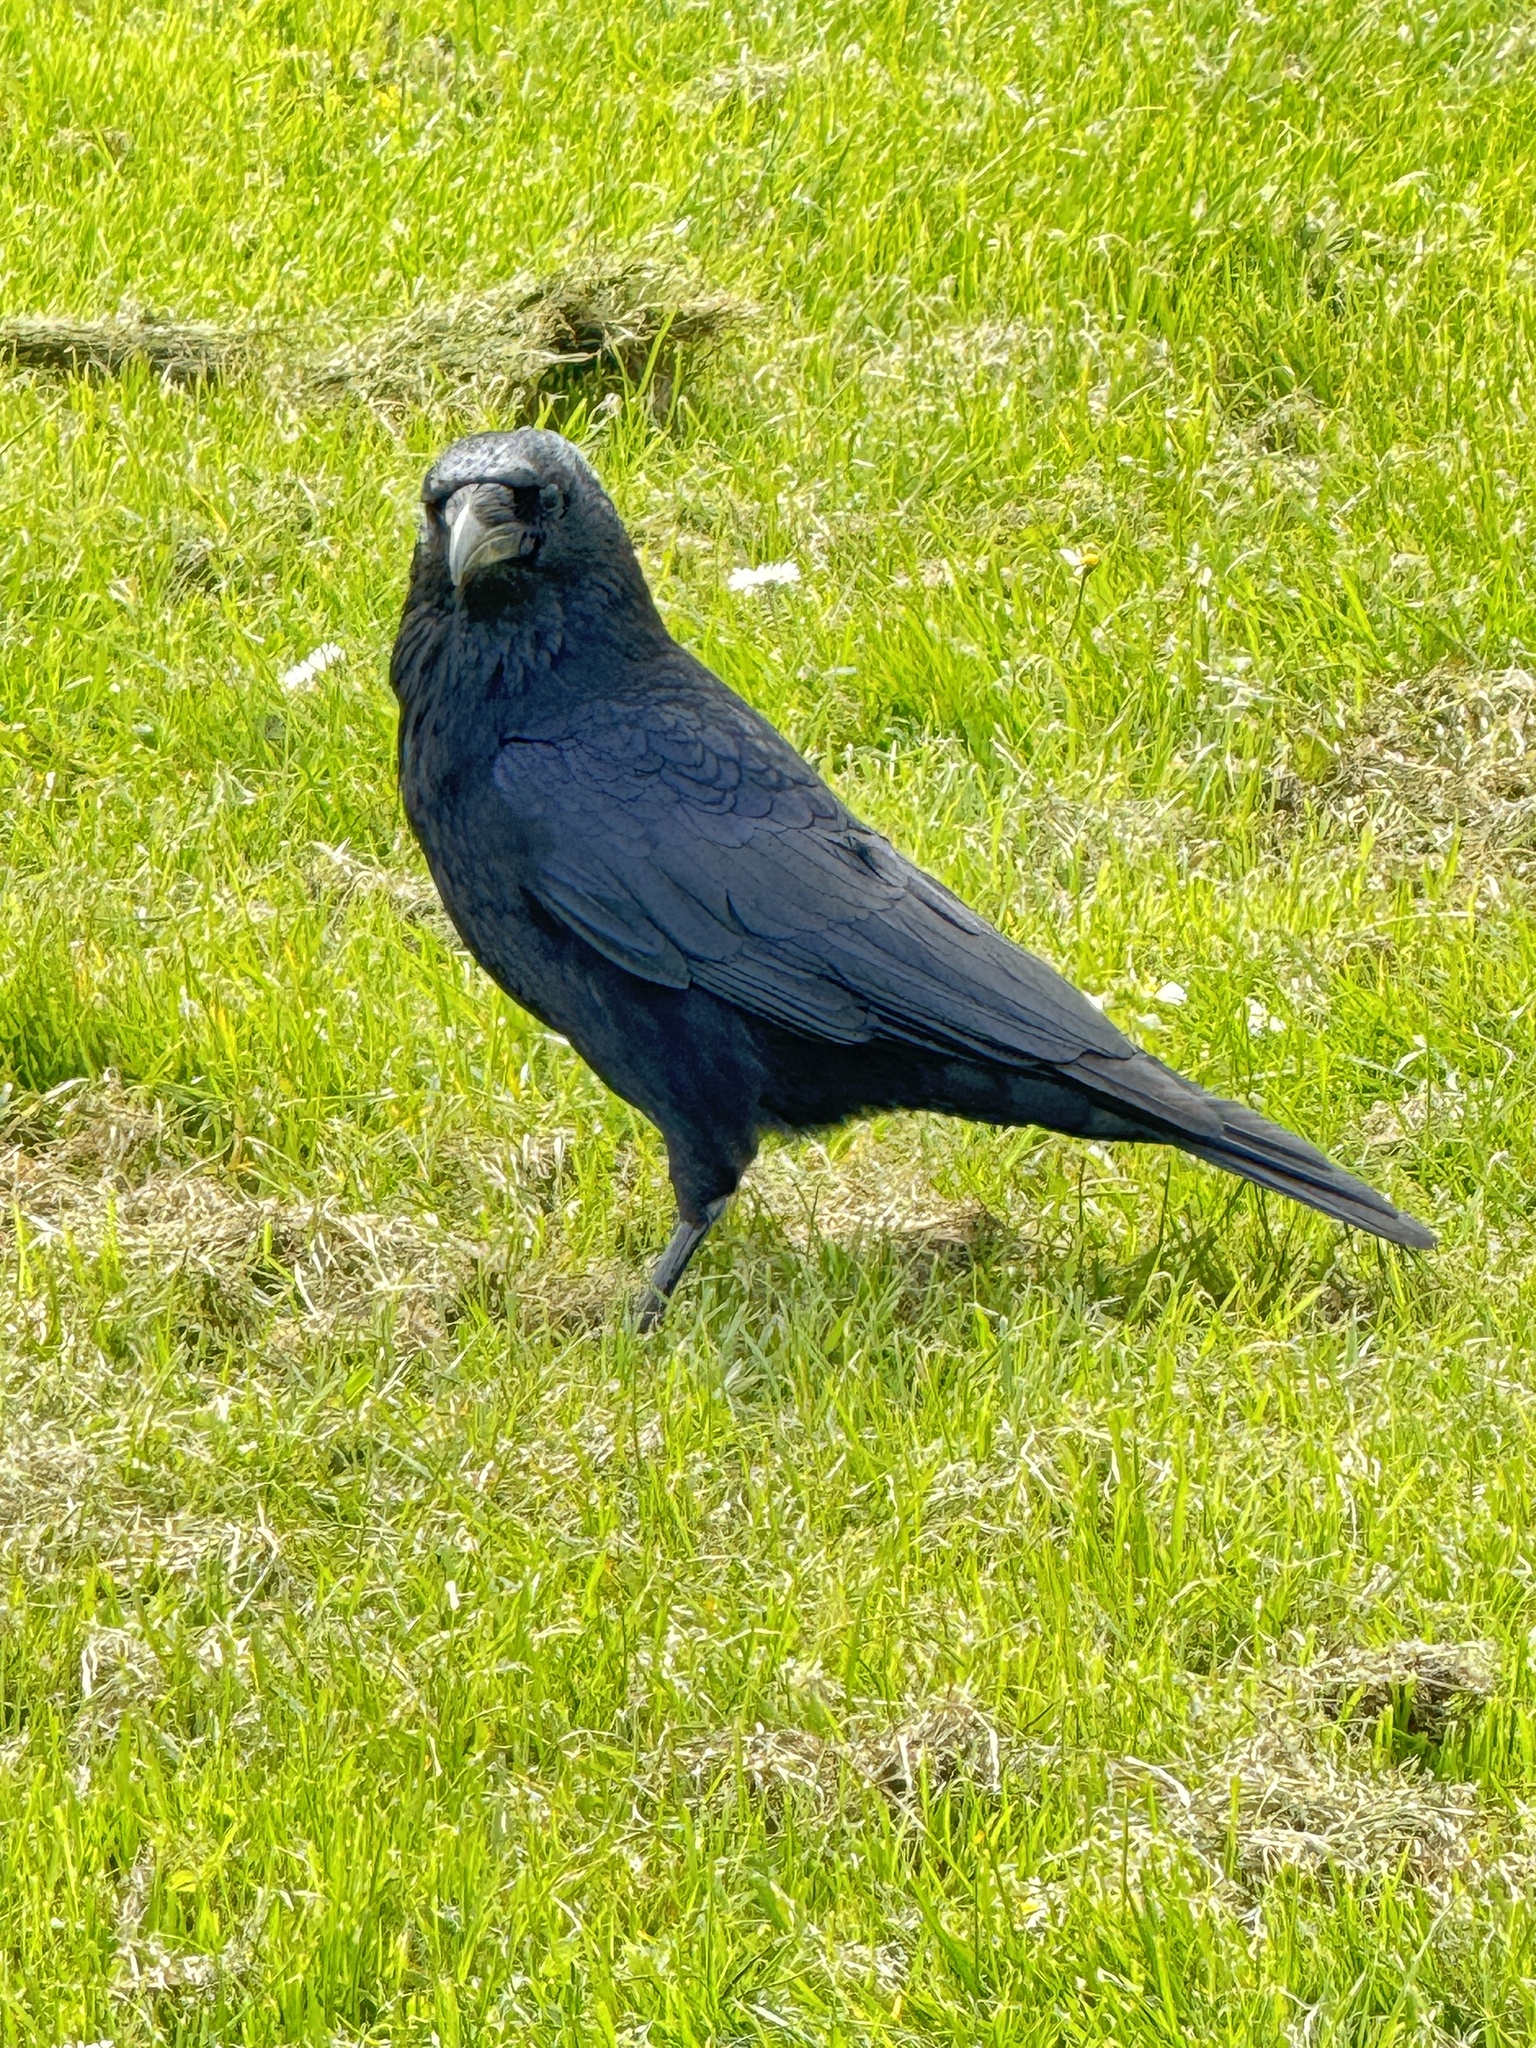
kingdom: Animalia
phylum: Chordata
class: Aves
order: Passeriformes
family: Corvidae
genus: Corvus
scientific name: Corvus corone
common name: Carrion crow
